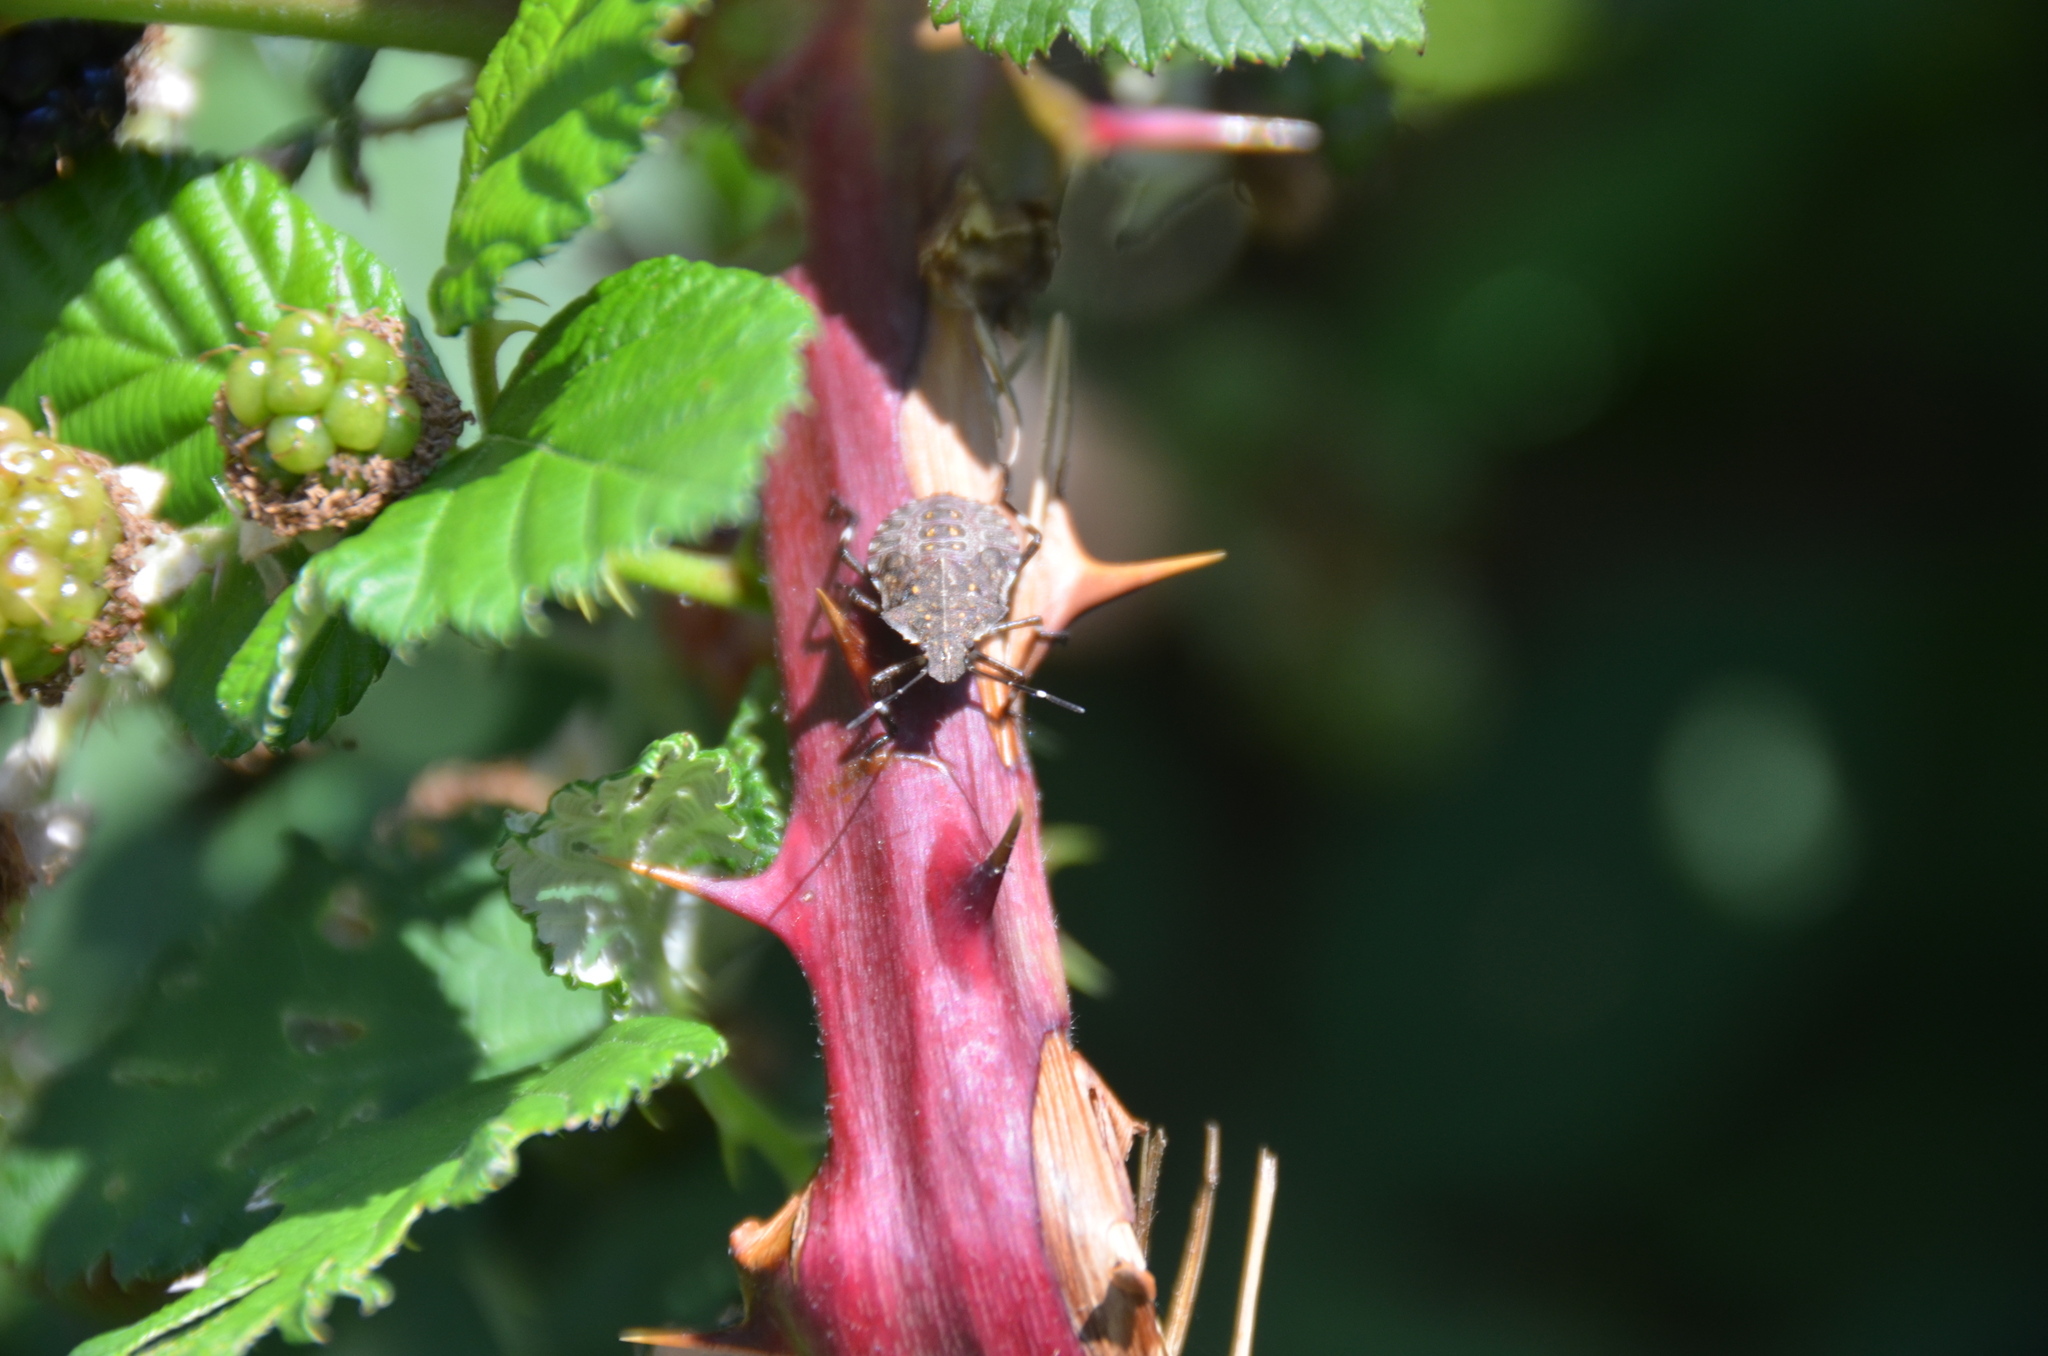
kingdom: Animalia
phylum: Arthropoda
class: Insecta
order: Hemiptera
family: Pentatomidae
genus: Halyomorpha
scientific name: Halyomorpha halys
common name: Brown marmorated stink bug
